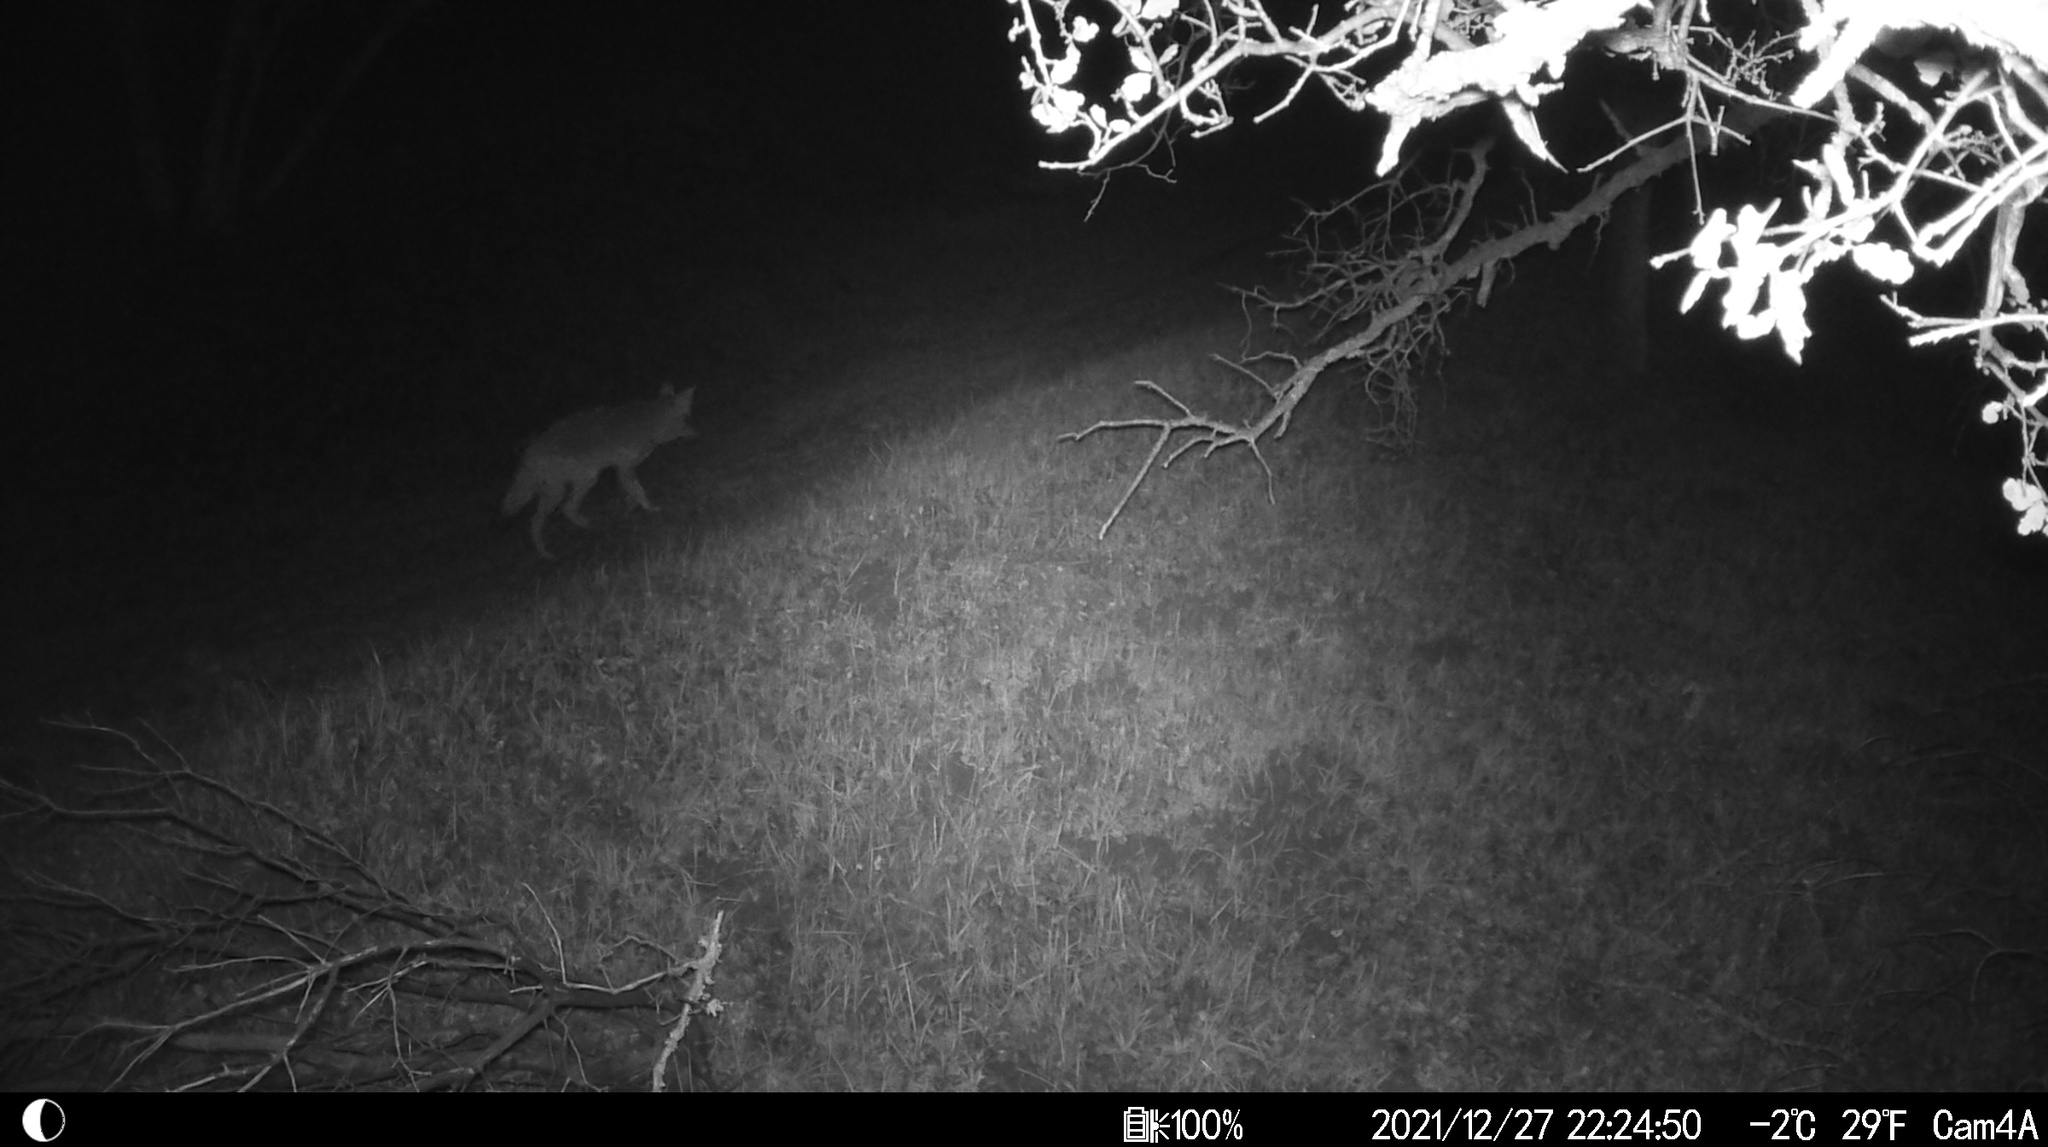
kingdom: Animalia
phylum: Chordata
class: Mammalia
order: Carnivora
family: Canidae
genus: Canis
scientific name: Canis latrans
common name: Coyote
